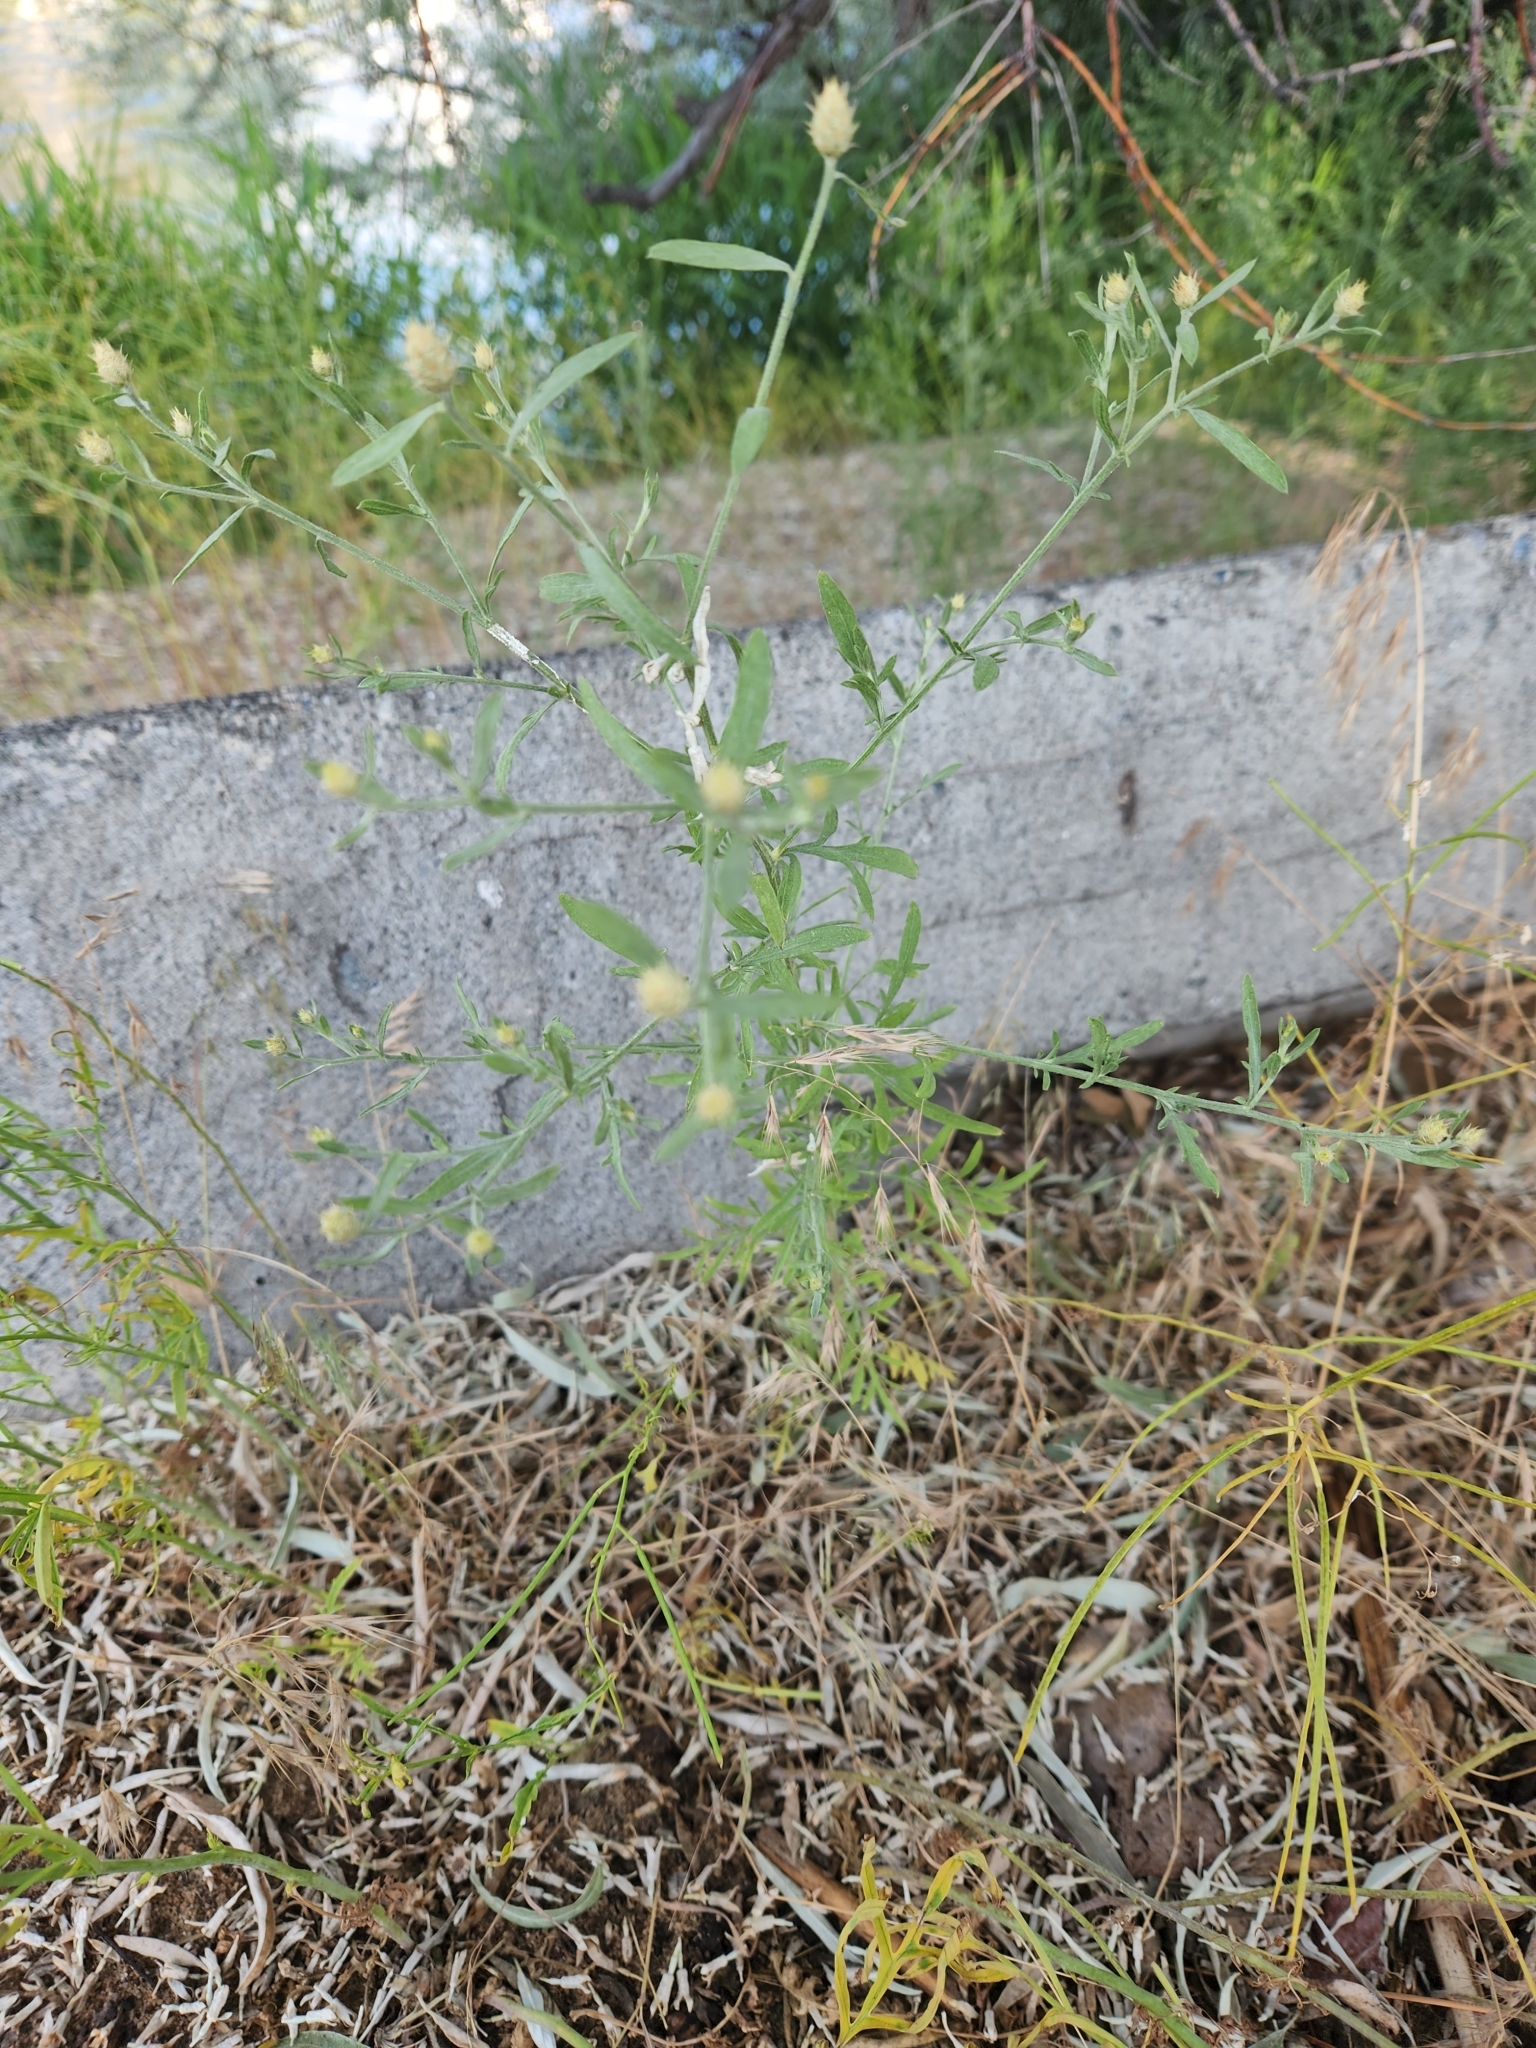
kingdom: Plantae
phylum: Tracheophyta
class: Magnoliopsida
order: Asterales
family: Asteraceae
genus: Centaurea
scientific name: Centaurea diffusa
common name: Diffuse knapweed
